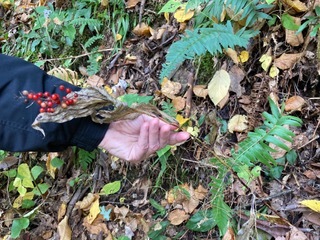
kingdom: Plantae
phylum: Tracheophyta
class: Liliopsida
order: Asparagales
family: Asparagaceae
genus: Maianthemum
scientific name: Maianthemum racemosum
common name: False spikenard
